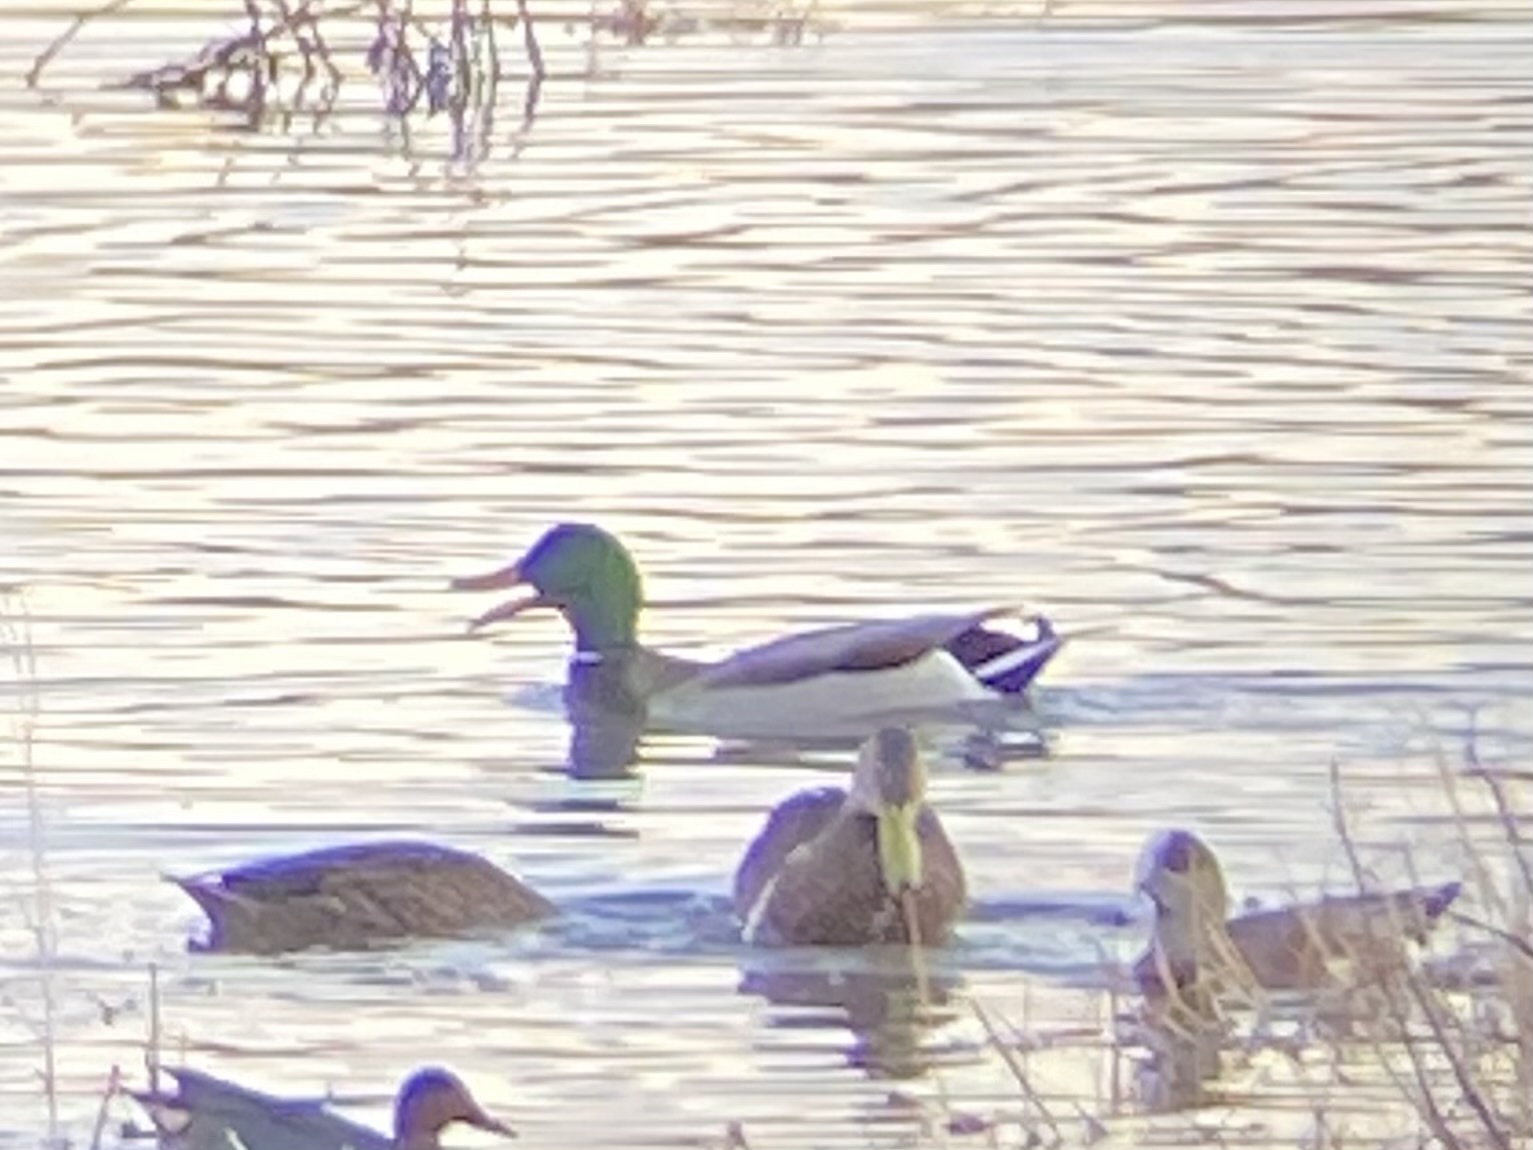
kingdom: Animalia
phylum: Chordata
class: Aves
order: Anseriformes
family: Anatidae
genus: Anas
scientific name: Anas platyrhynchos
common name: Mallard
